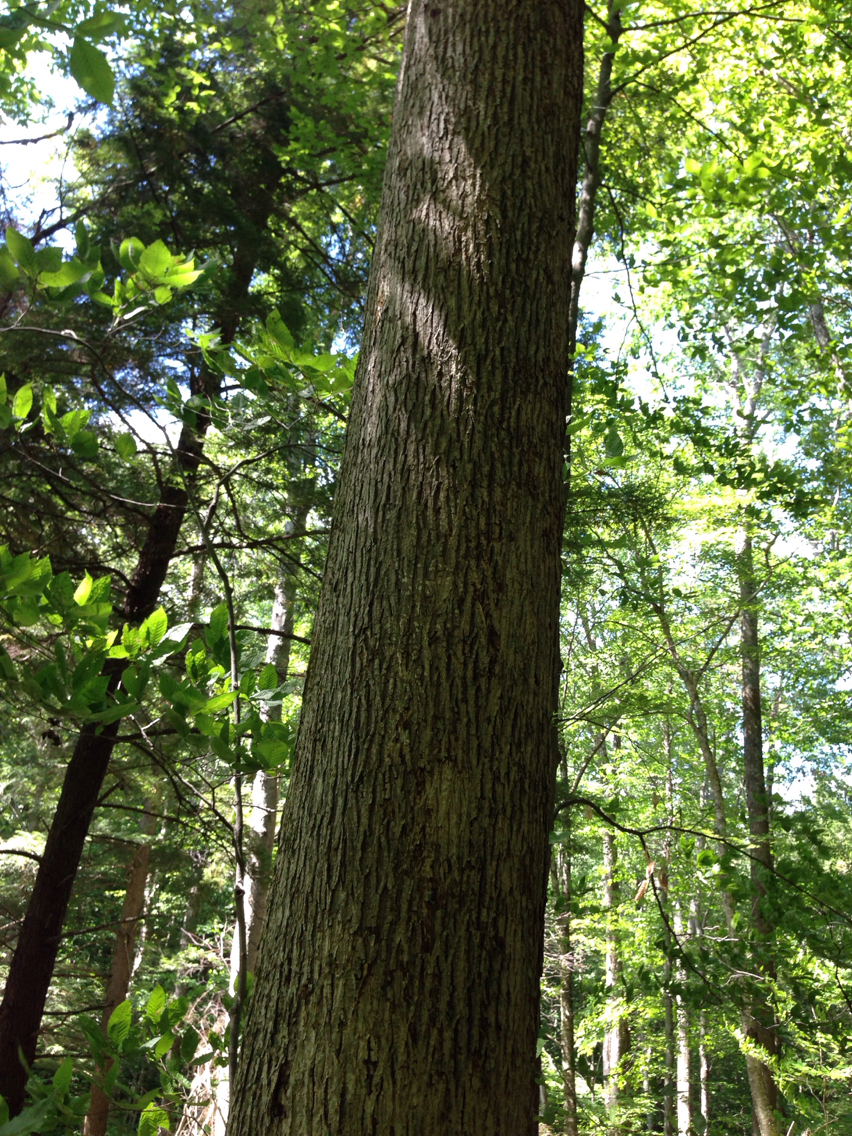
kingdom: Plantae
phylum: Tracheophyta
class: Magnoliopsida
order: Fagales
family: Juglandaceae
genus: Carya
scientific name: Carya cordiformis
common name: Bitternut hickory
